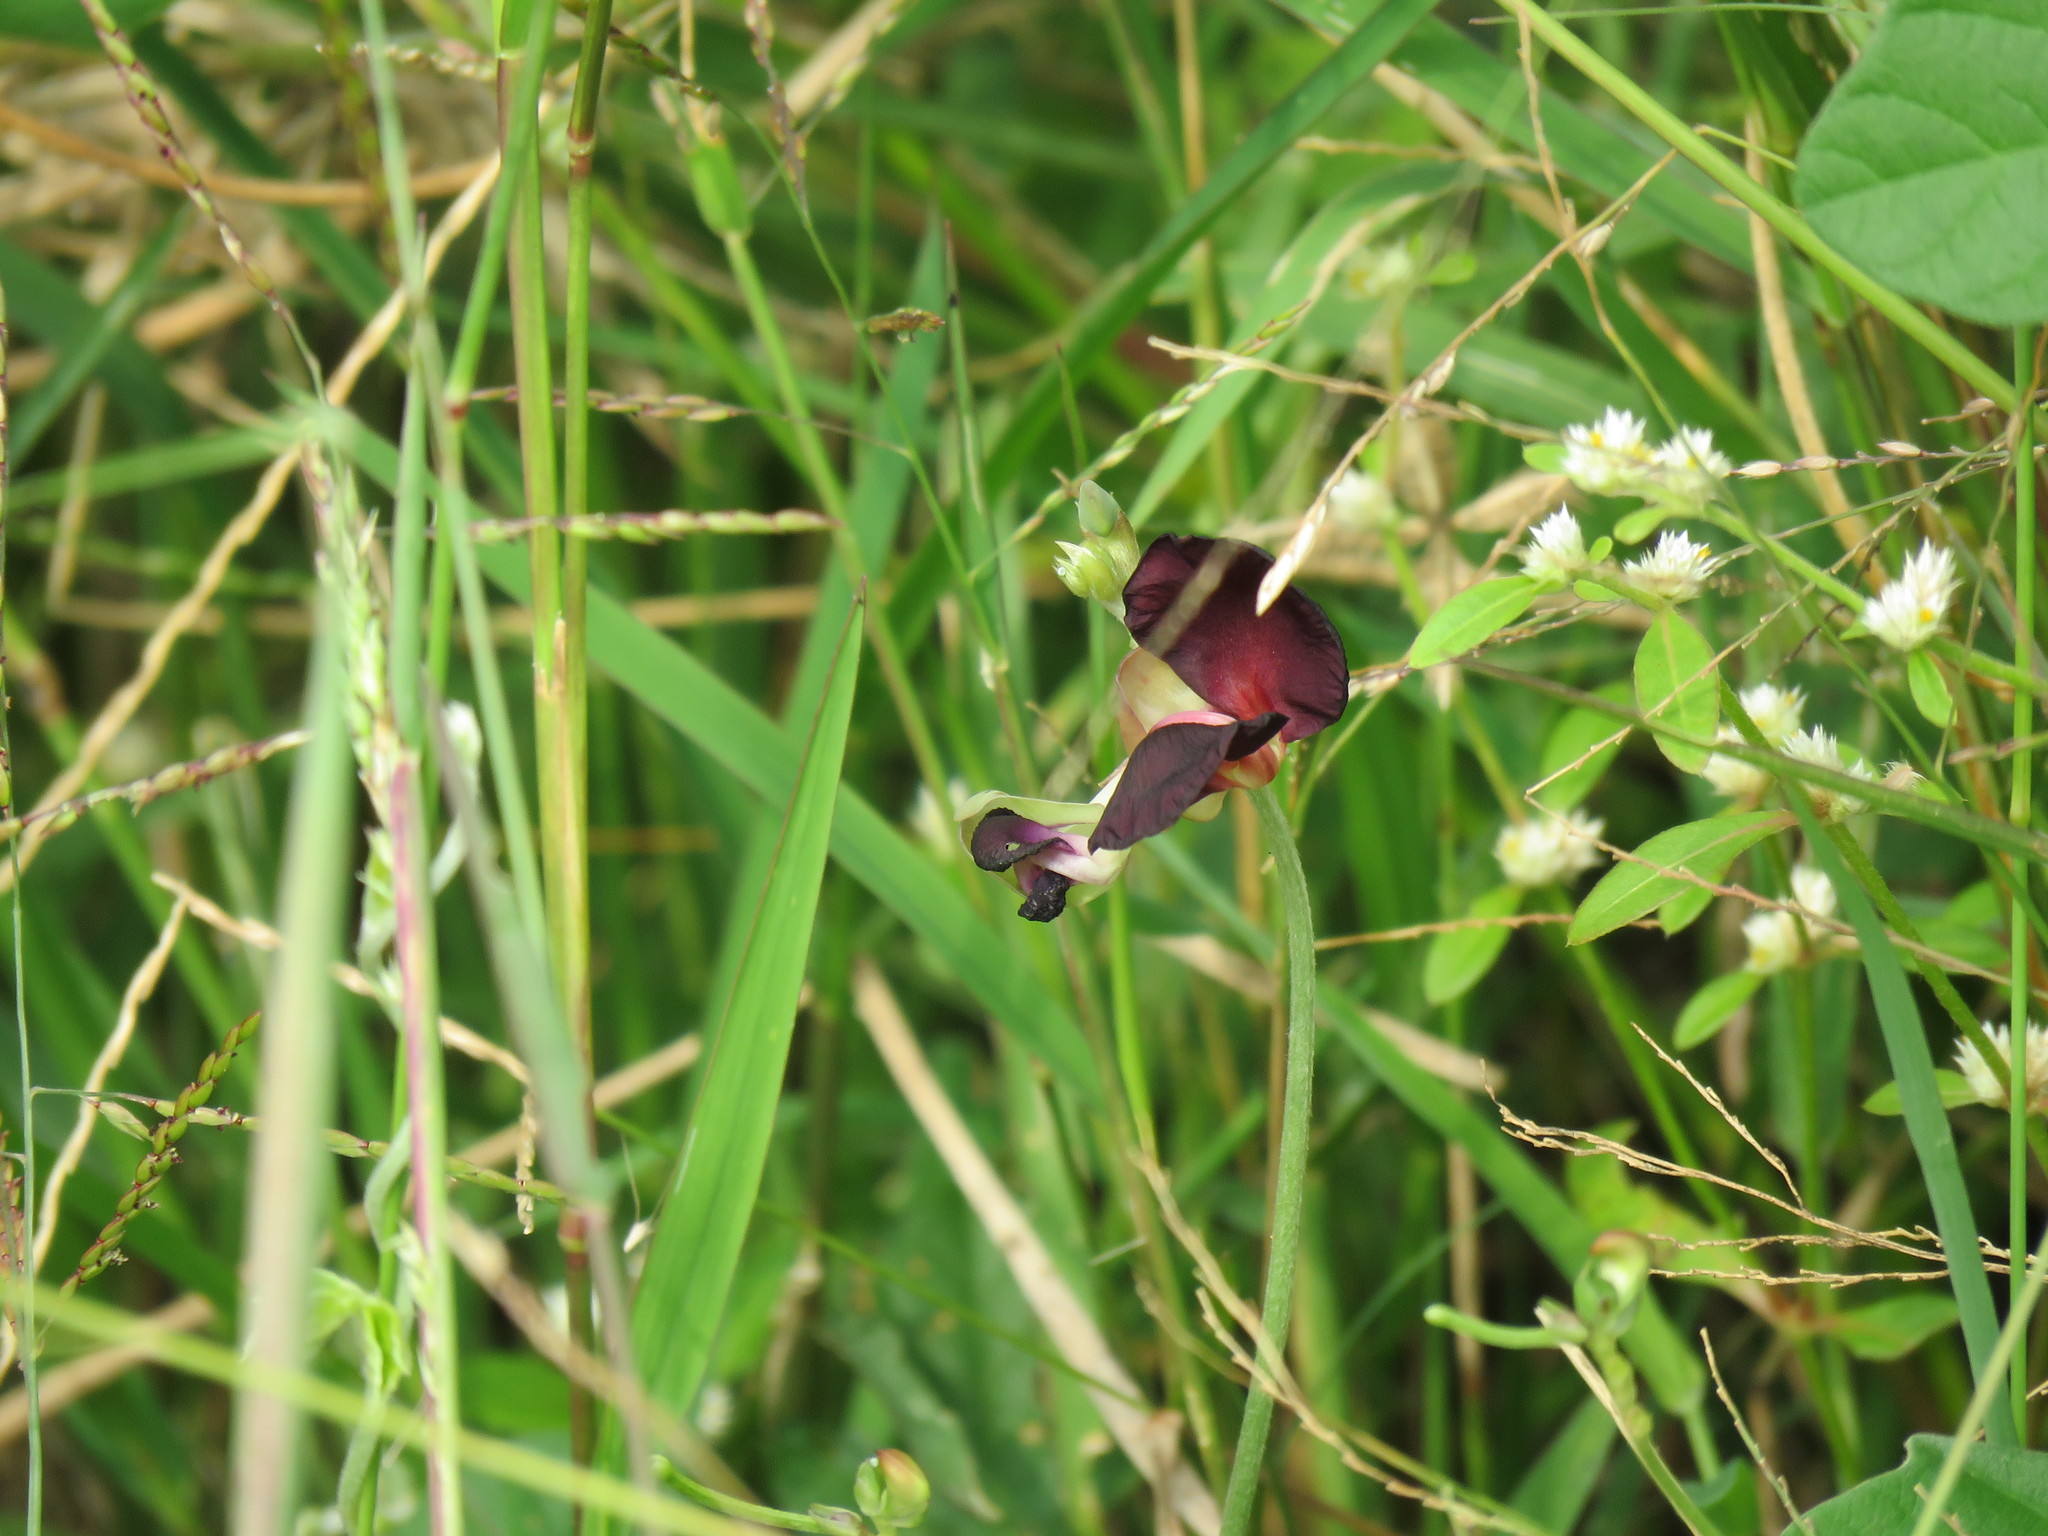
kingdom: Plantae
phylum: Tracheophyta
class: Magnoliopsida
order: Fabales
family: Fabaceae
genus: Macroptilium
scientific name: Macroptilium atropurpureum
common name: Purple bushbean
